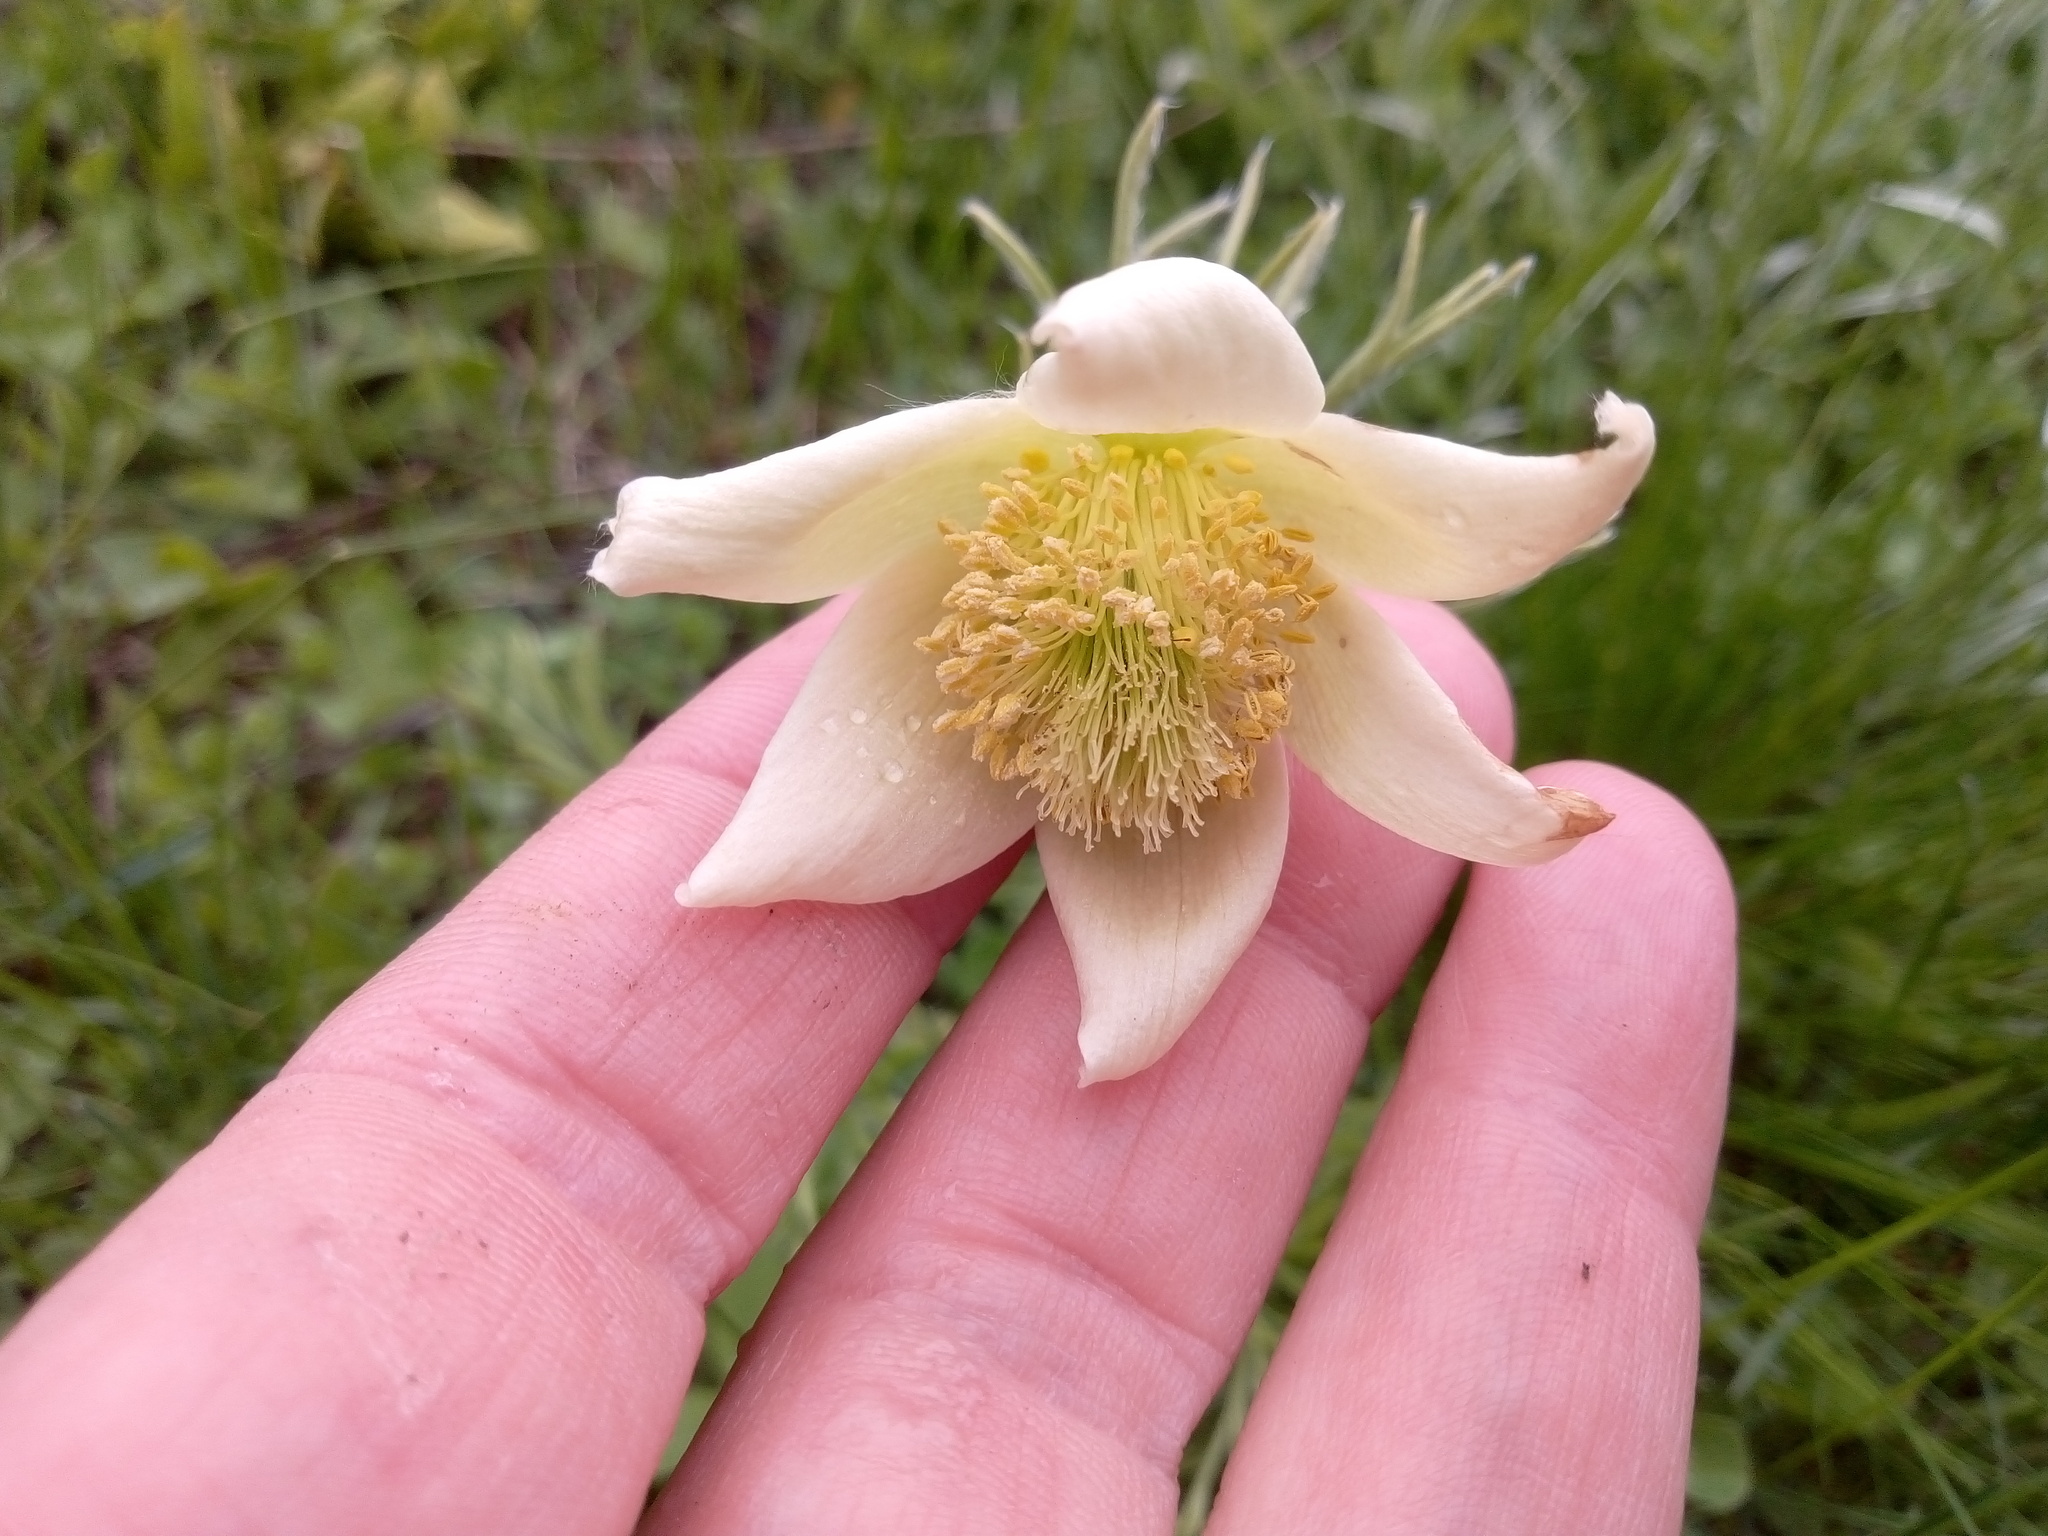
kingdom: Plantae
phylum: Tracheophyta
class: Magnoliopsida
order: Ranunculales
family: Ranunculaceae
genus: Pulsatilla
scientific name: Pulsatilla pratensis
